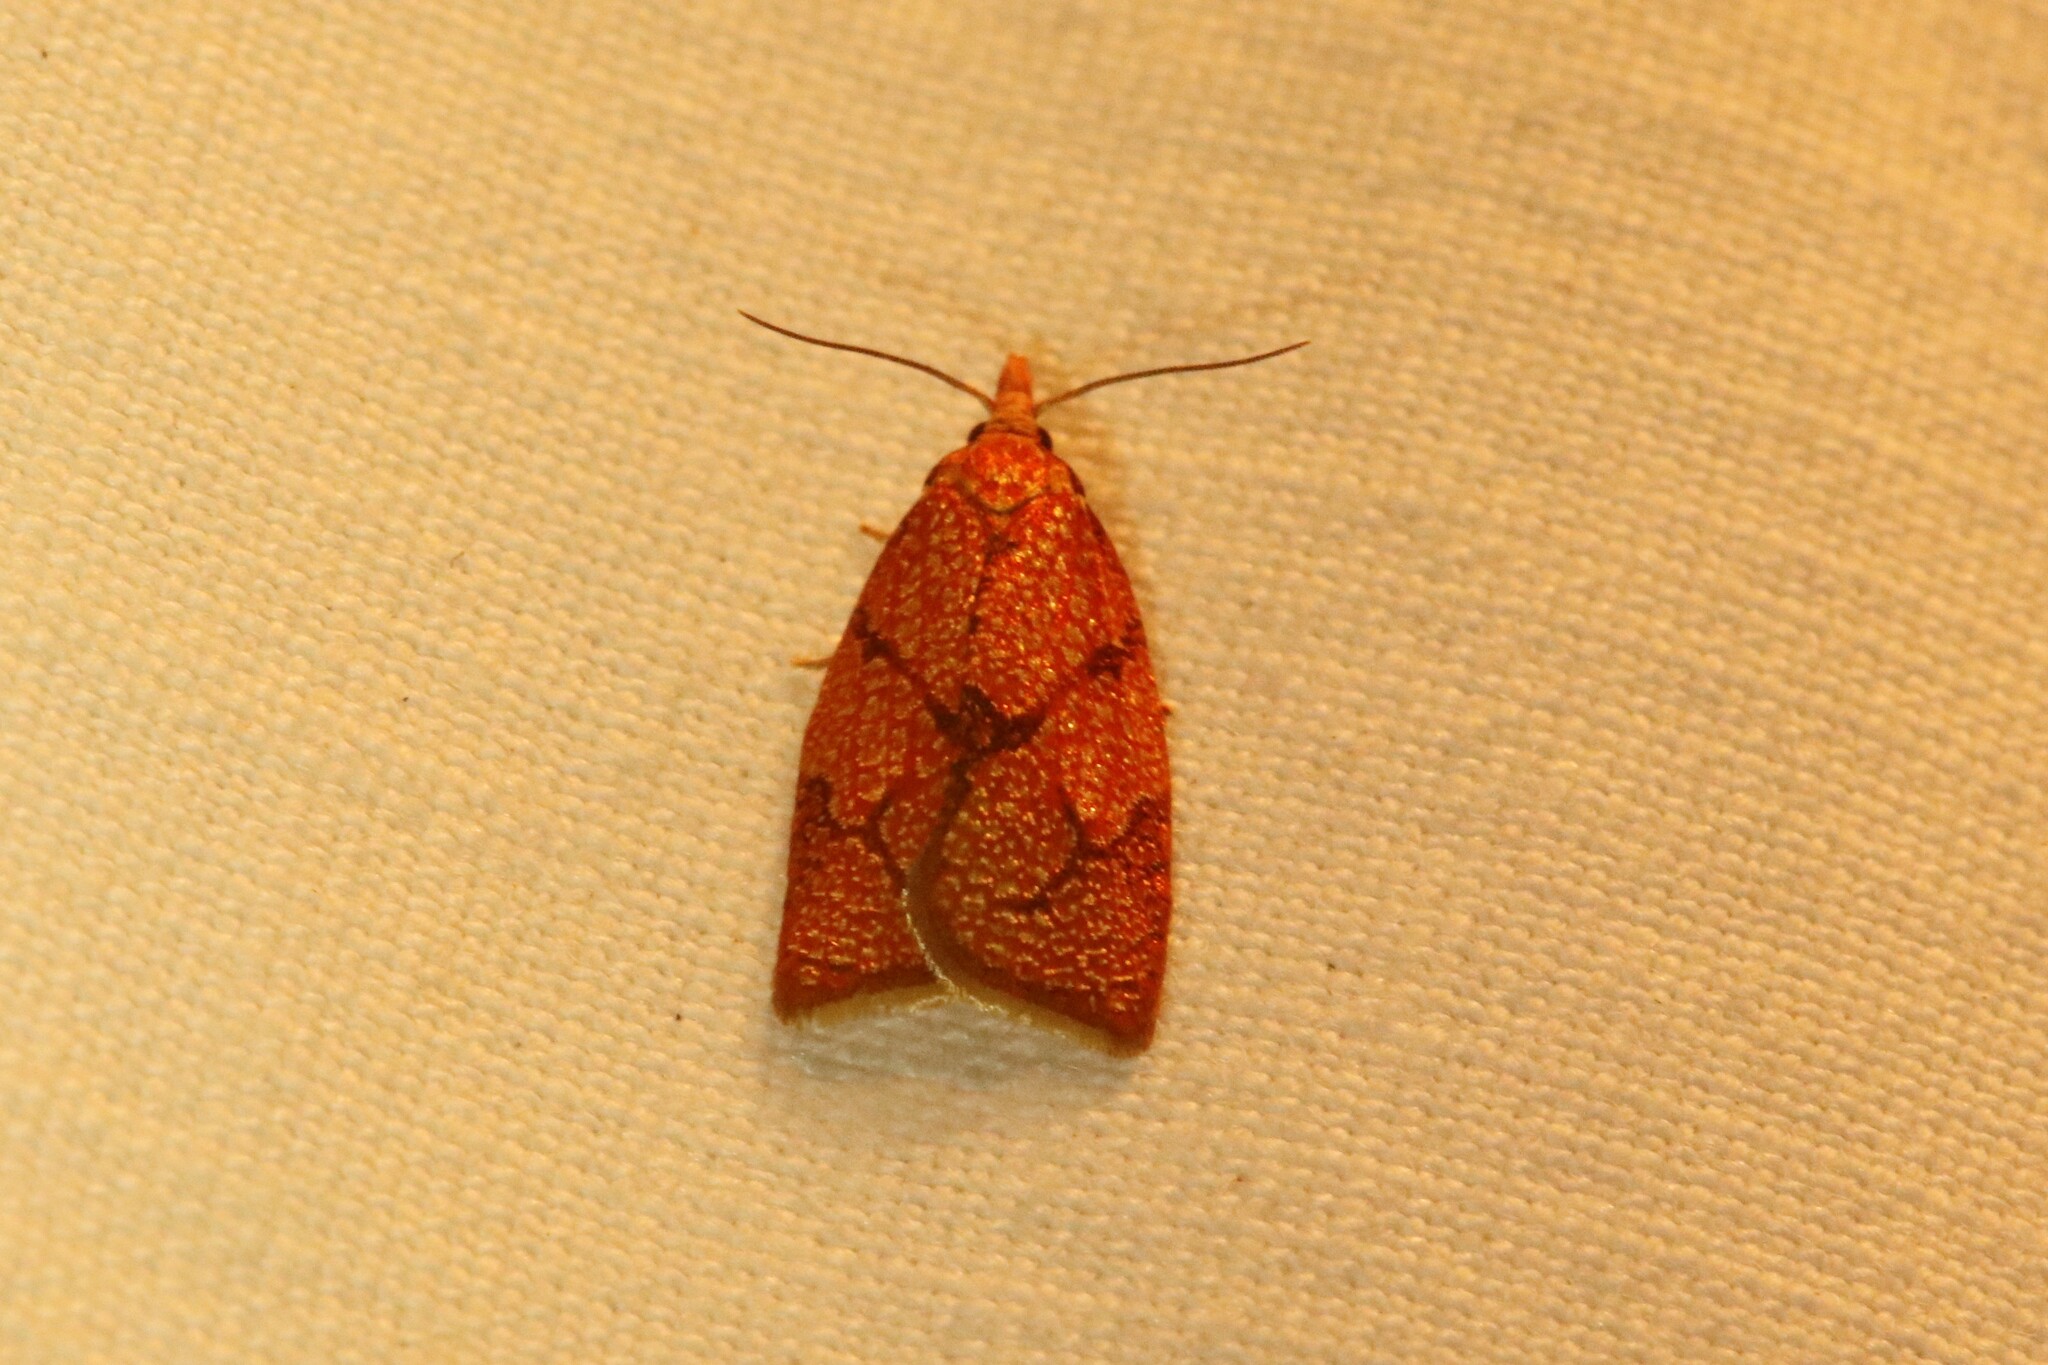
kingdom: Animalia
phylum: Arthropoda
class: Insecta
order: Lepidoptera
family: Tortricidae
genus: Cenopis
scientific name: Cenopis reticulatana
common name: Reticulated fruitworm moth
